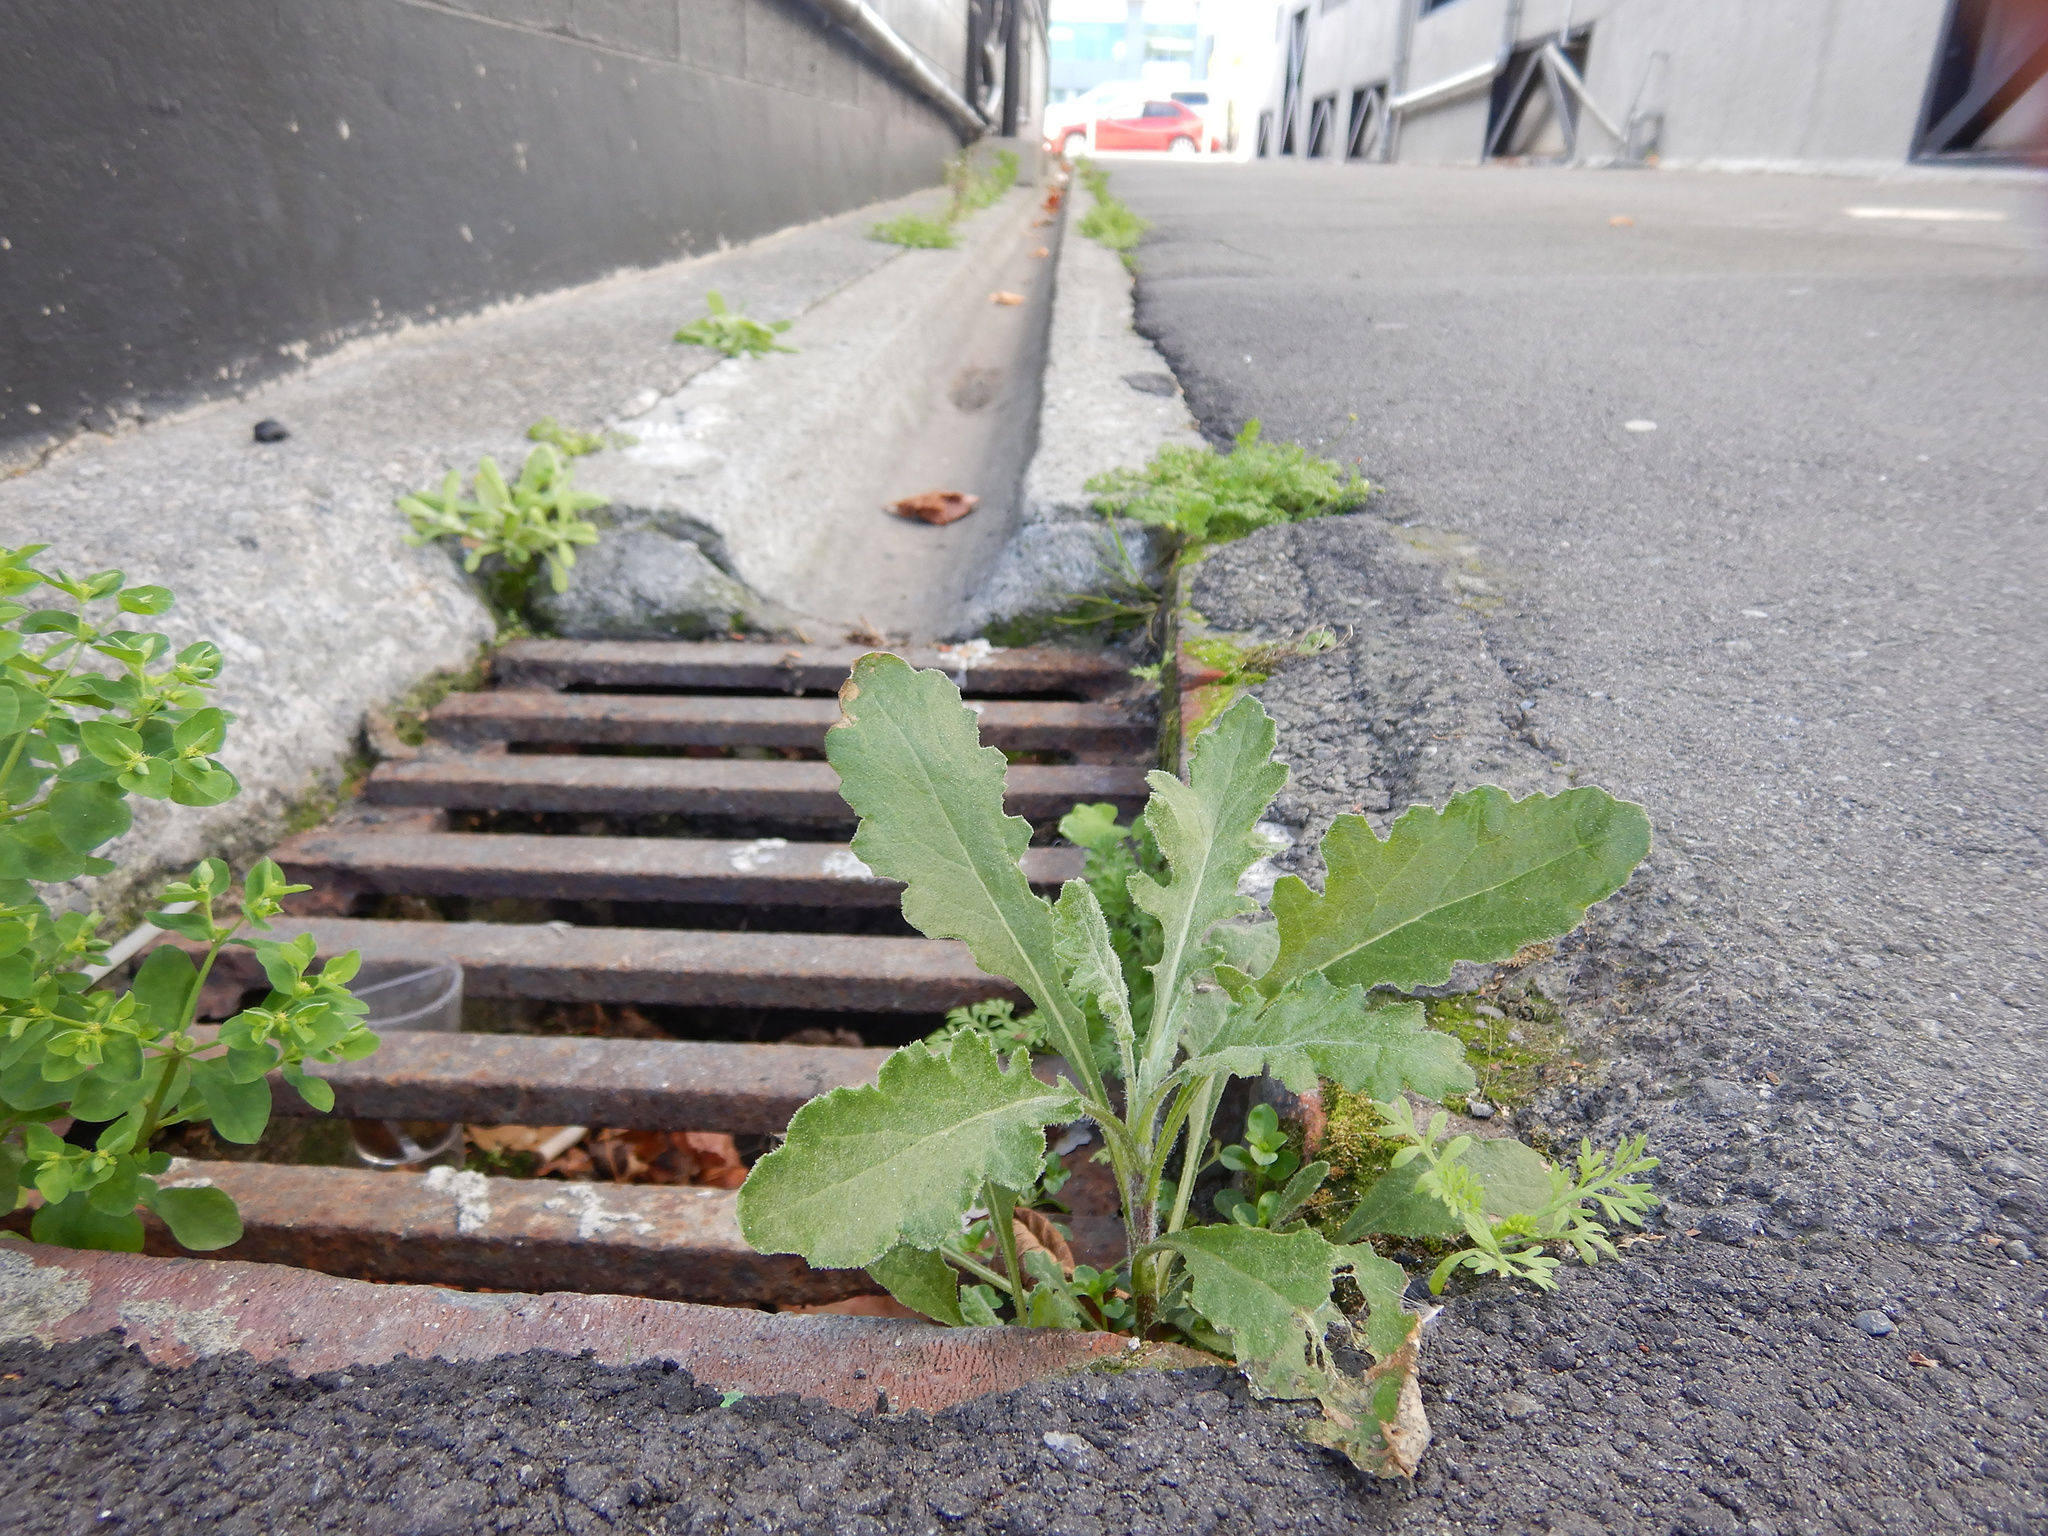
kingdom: Plantae
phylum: Tracheophyta
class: Magnoliopsida
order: Asterales
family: Asteraceae
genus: Senecio
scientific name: Senecio glomeratus
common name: Cutleaf burnweed
